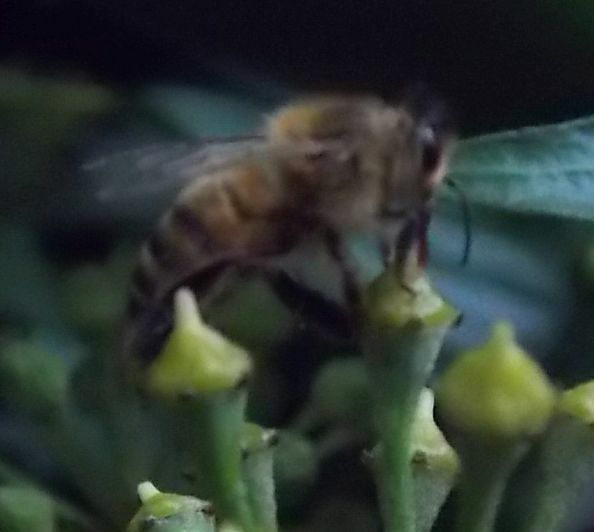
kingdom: Animalia
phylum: Arthropoda
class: Insecta
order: Hymenoptera
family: Apidae
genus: Apis
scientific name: Apis mellifera
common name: Honey bee
